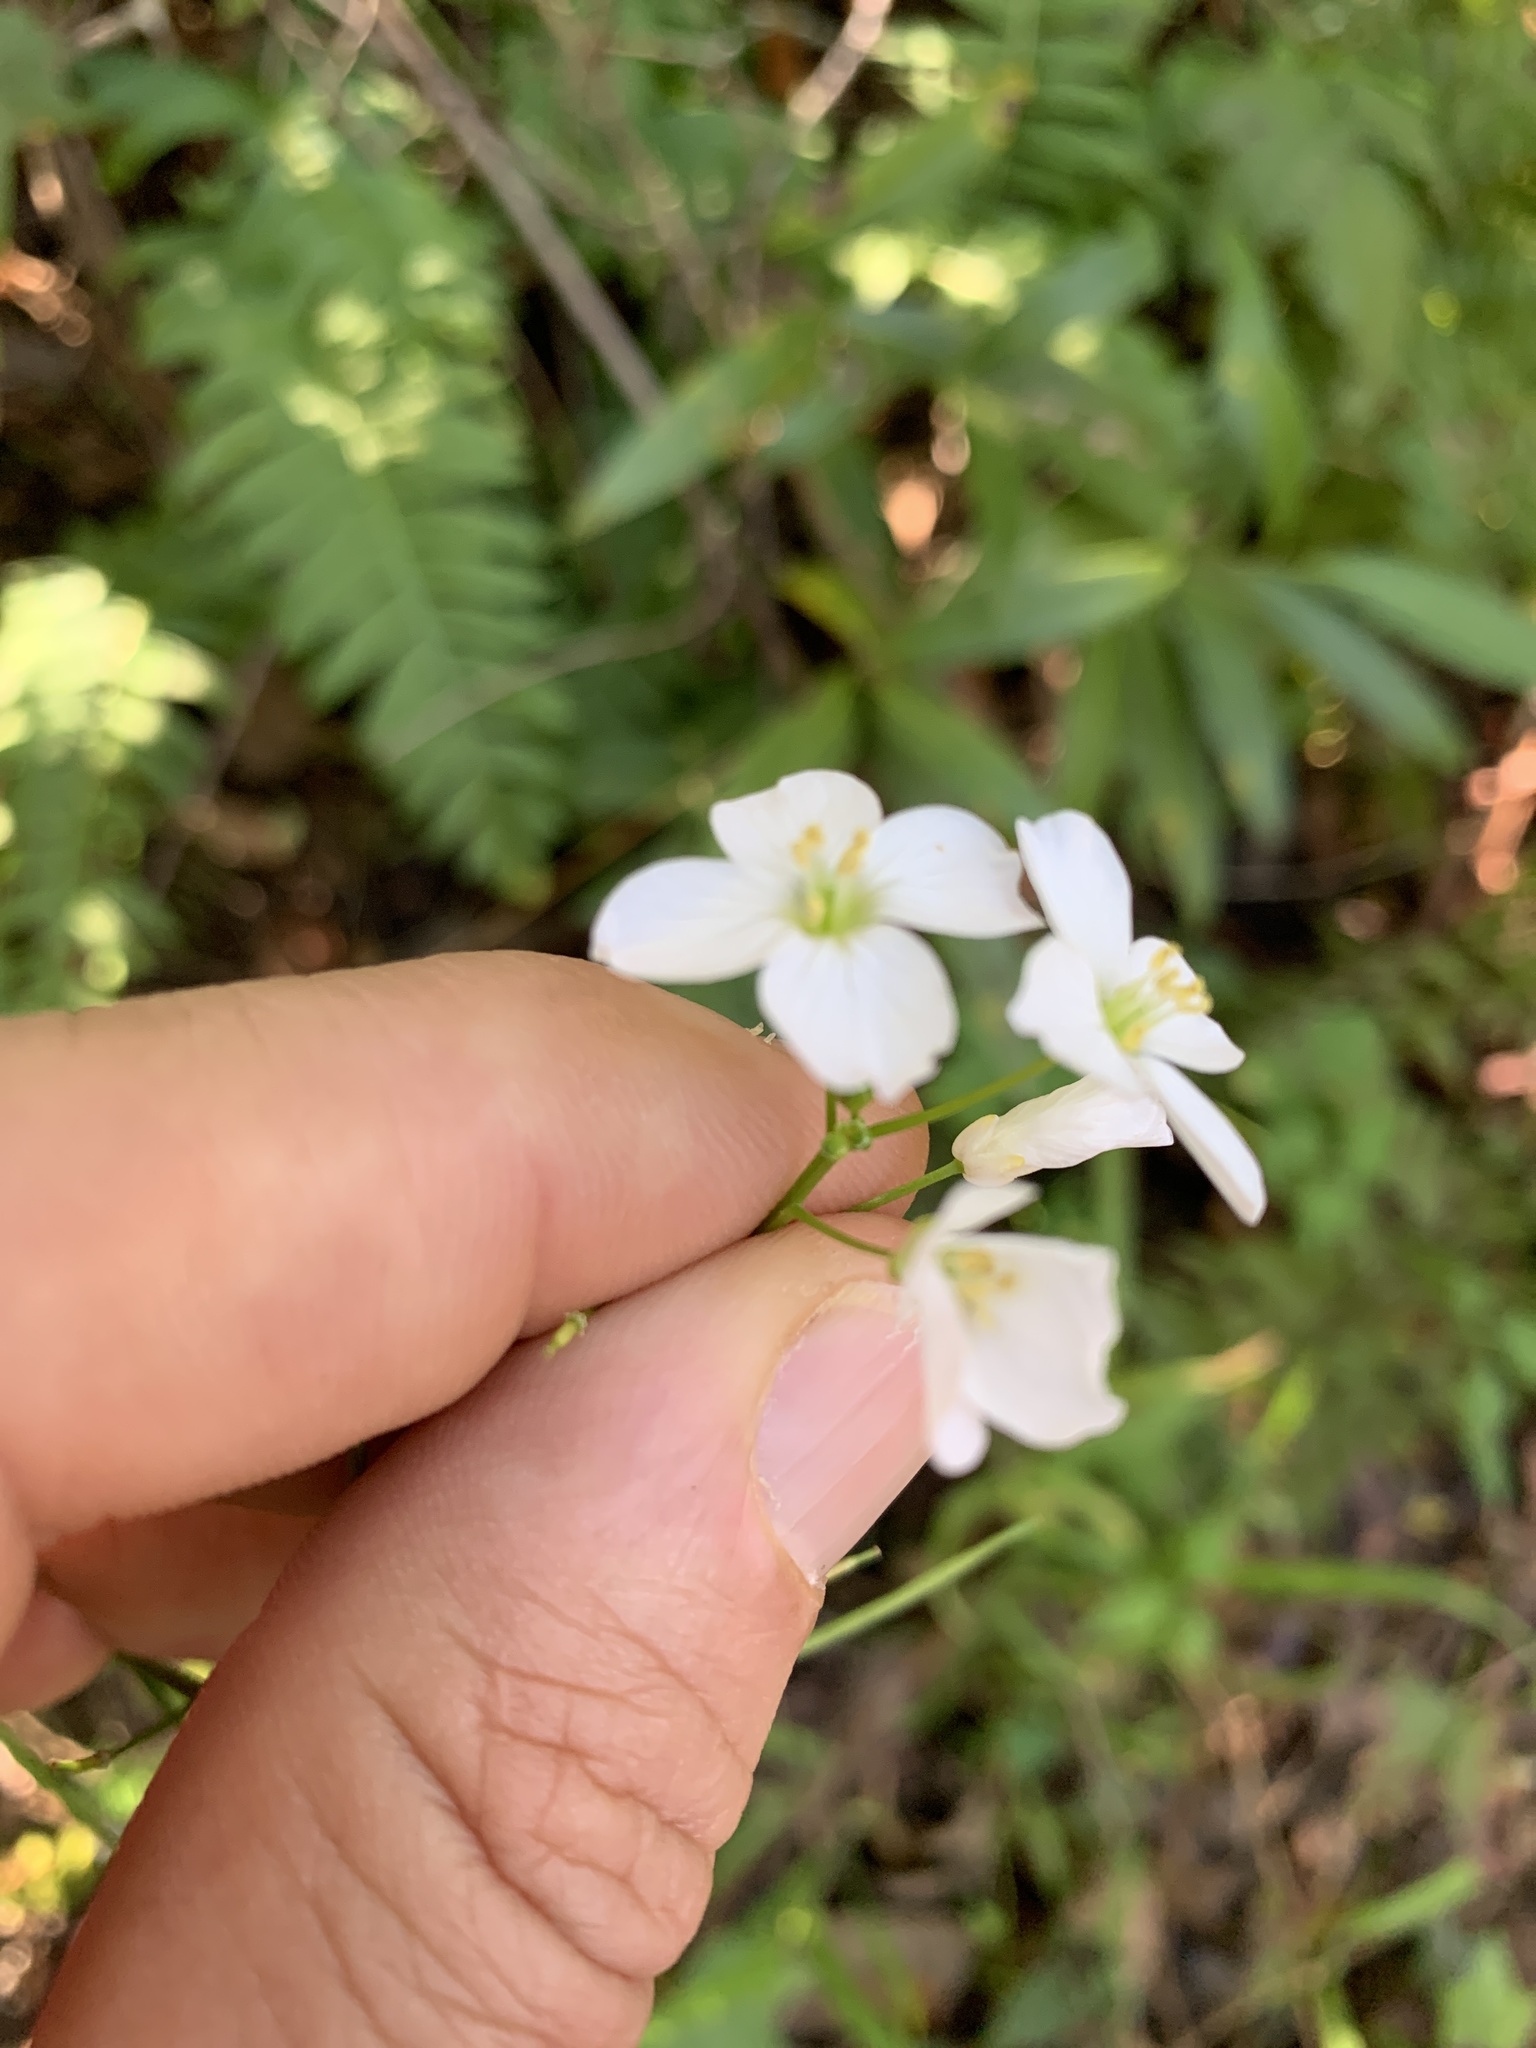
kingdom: Plantae
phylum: Tracheophyta
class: Magnoliopsida
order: Brassicales
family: Brassicaceae
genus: Cardamine
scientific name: Cardamine californica
